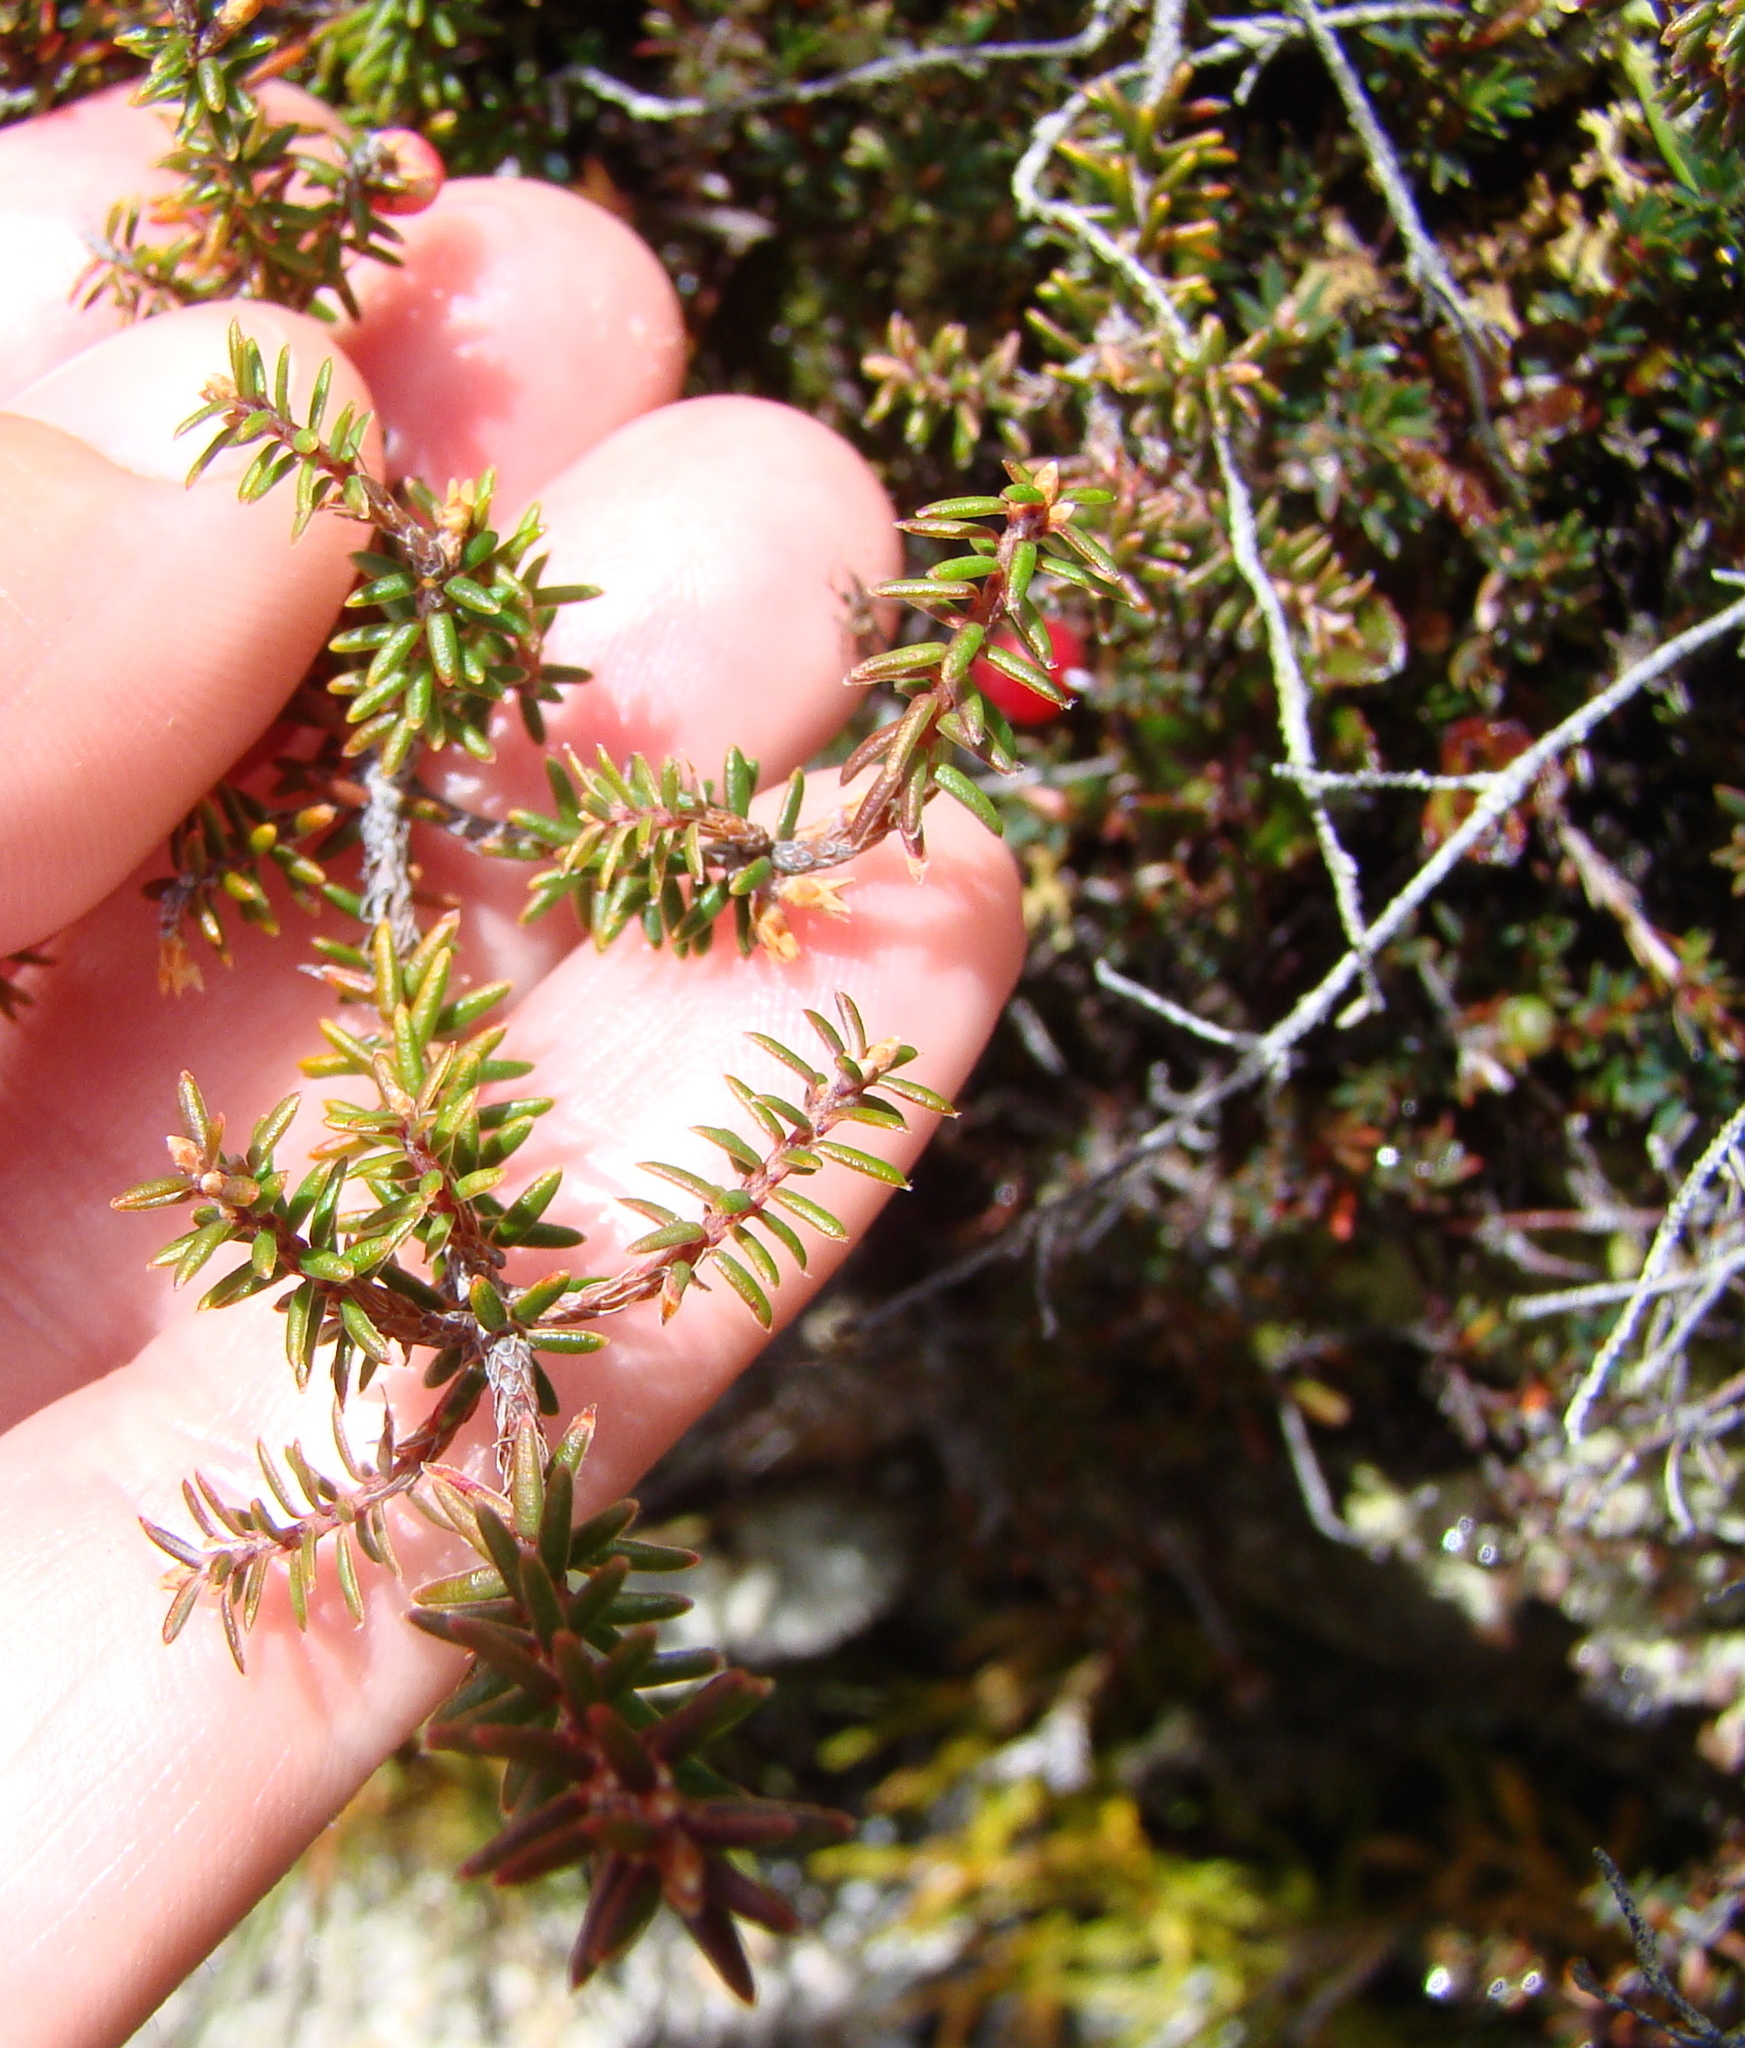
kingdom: Plantae
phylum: Tracheophyta
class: Magnoliopsida
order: Ericales
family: Ericaceae
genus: Androstoma
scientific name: Androstoma empetrifolia
